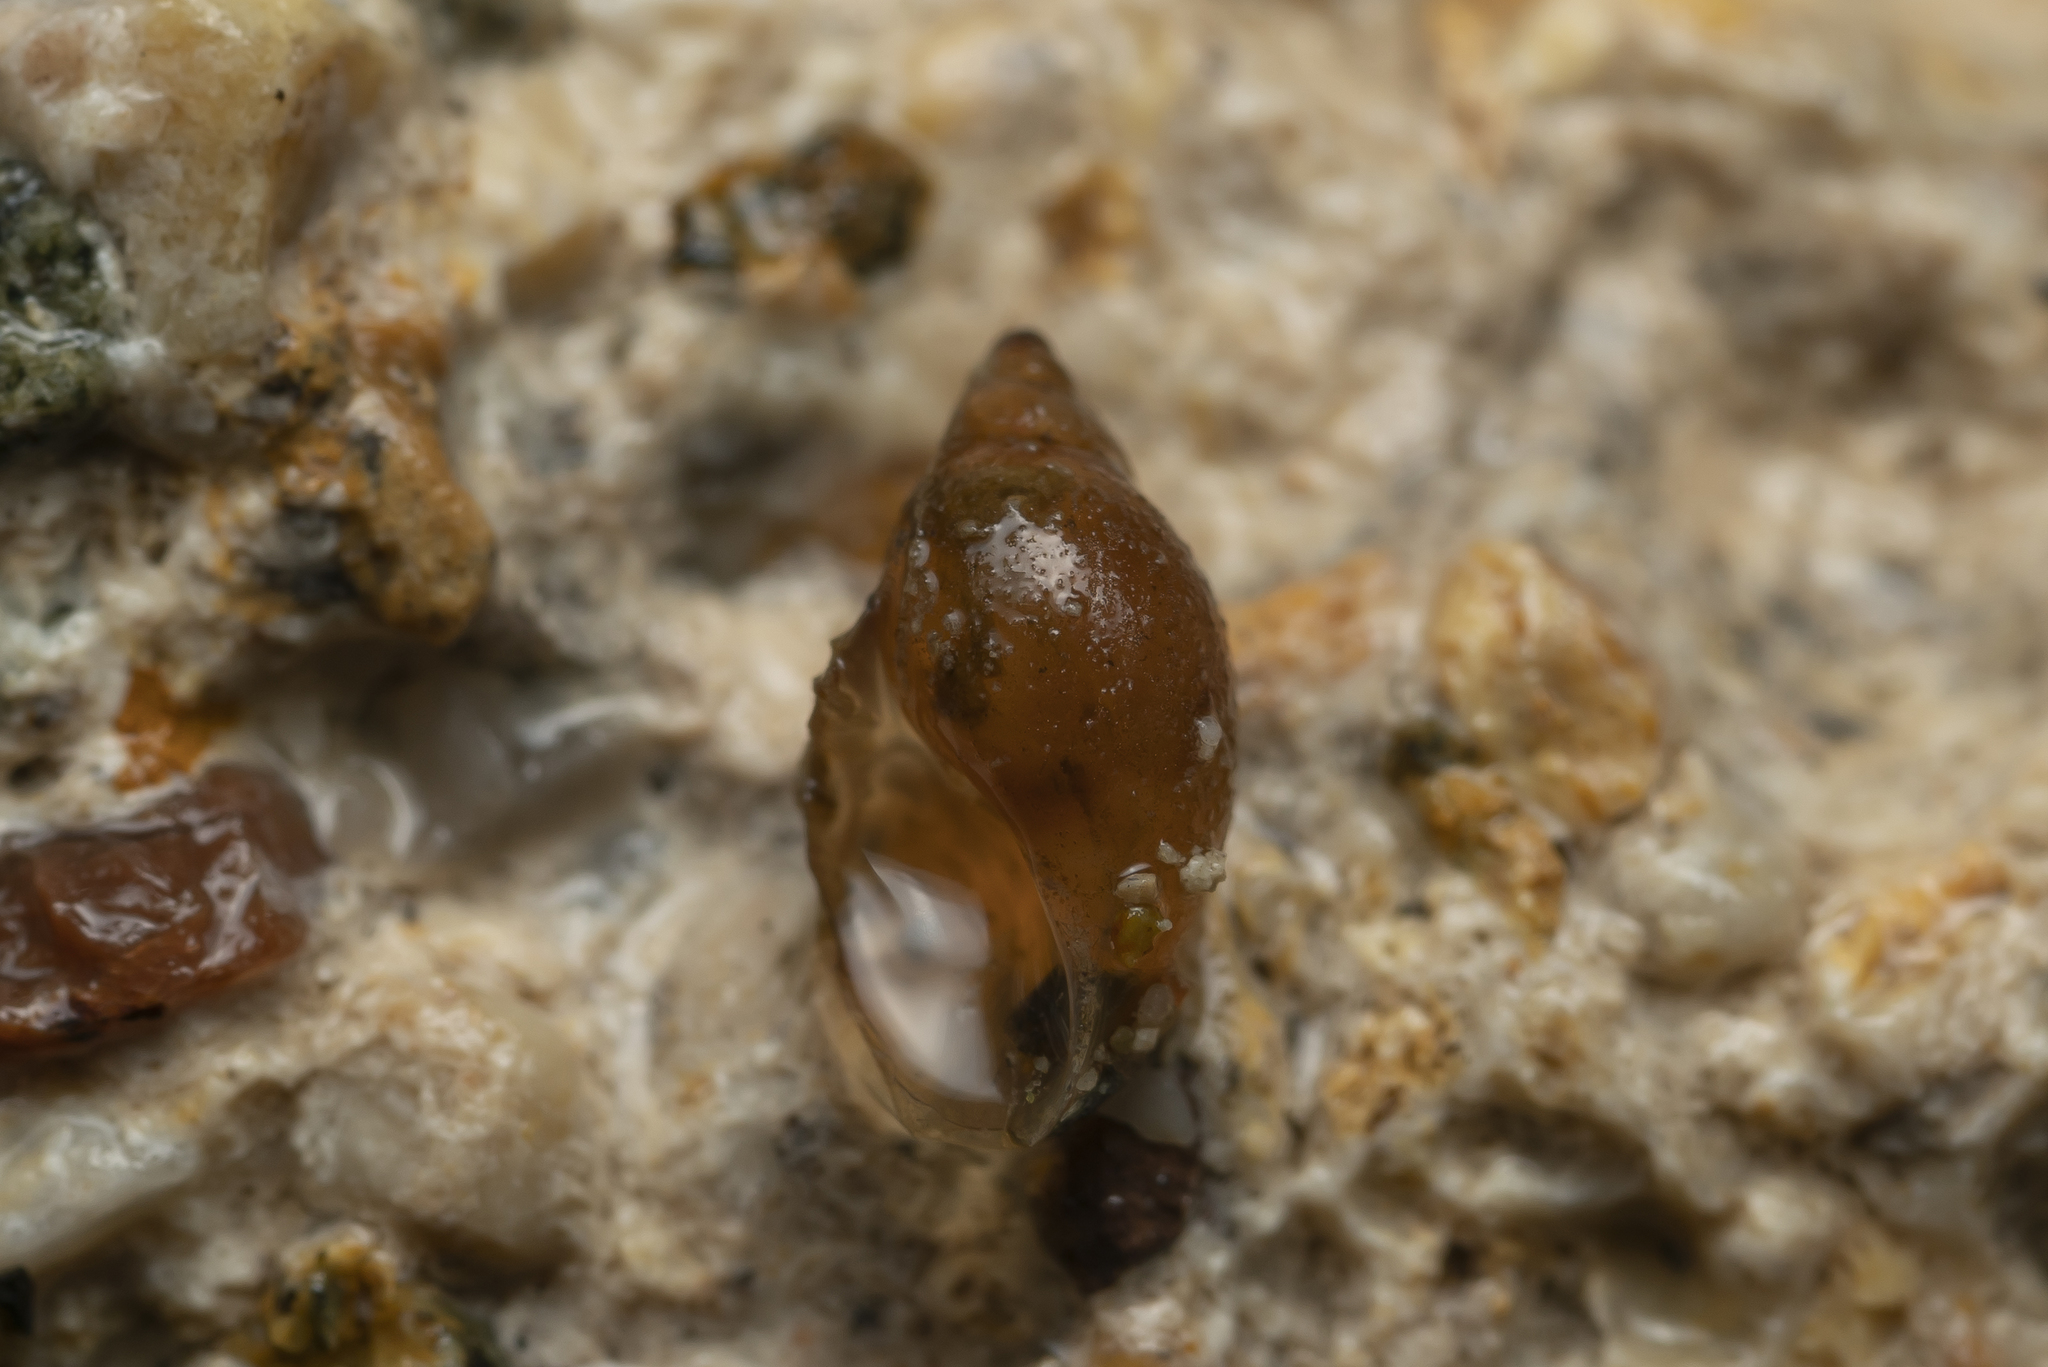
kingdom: Animalia
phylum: Mollusca
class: Gastropoda
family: Physidae
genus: Physella
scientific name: Physella acuta
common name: European physa
